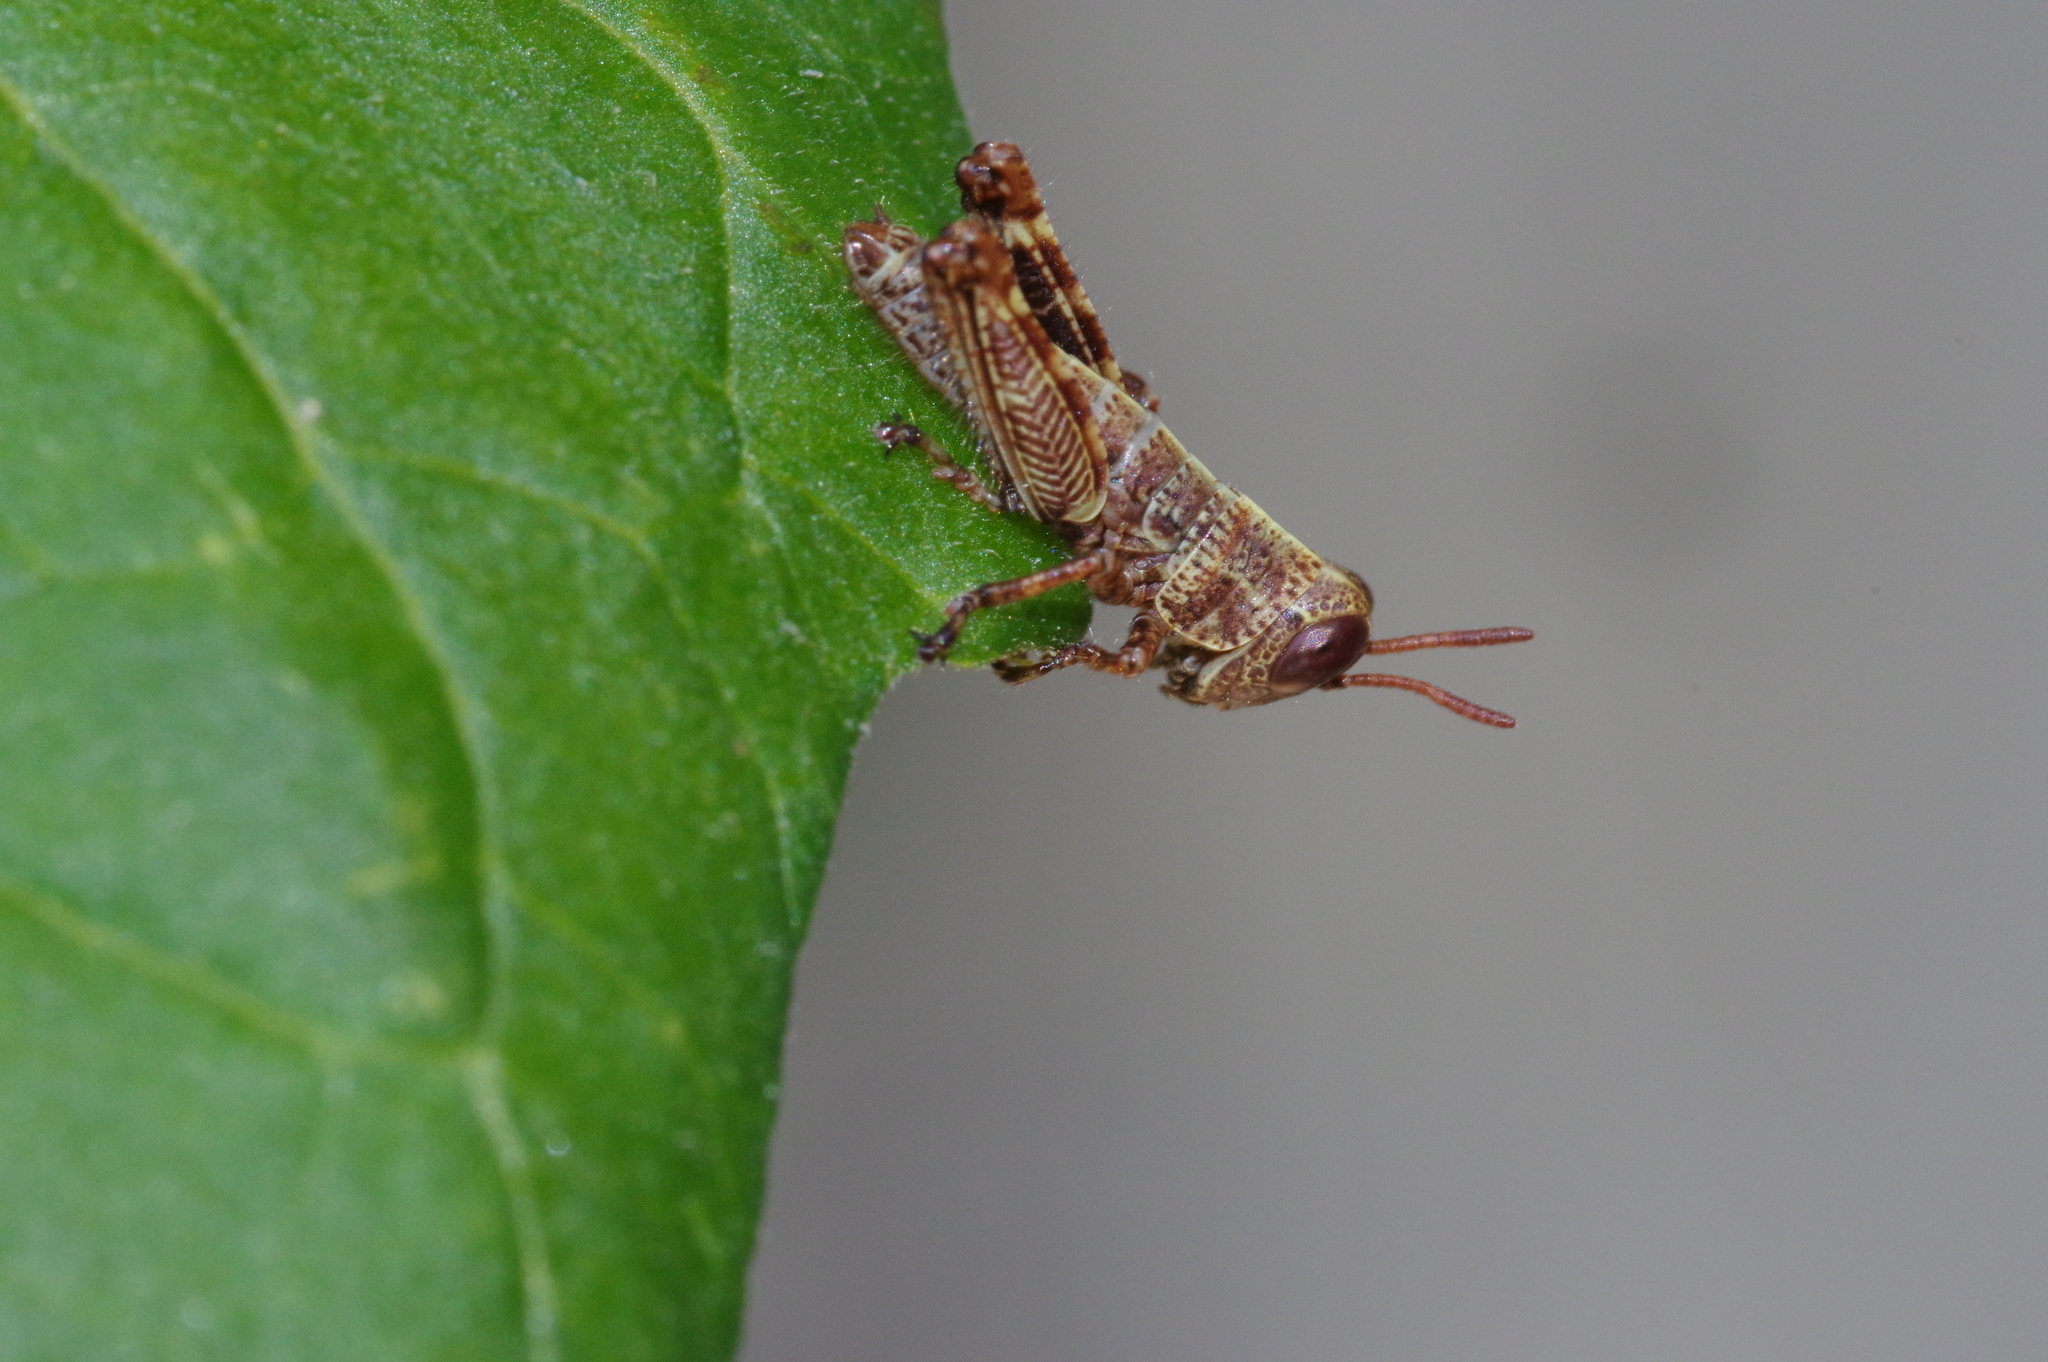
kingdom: Animalia
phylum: Arthropoda
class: Insecta
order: Orthoptera
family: Acrididae
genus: Fruhstorferiola
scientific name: Fruhstorferiola okinawaensis
